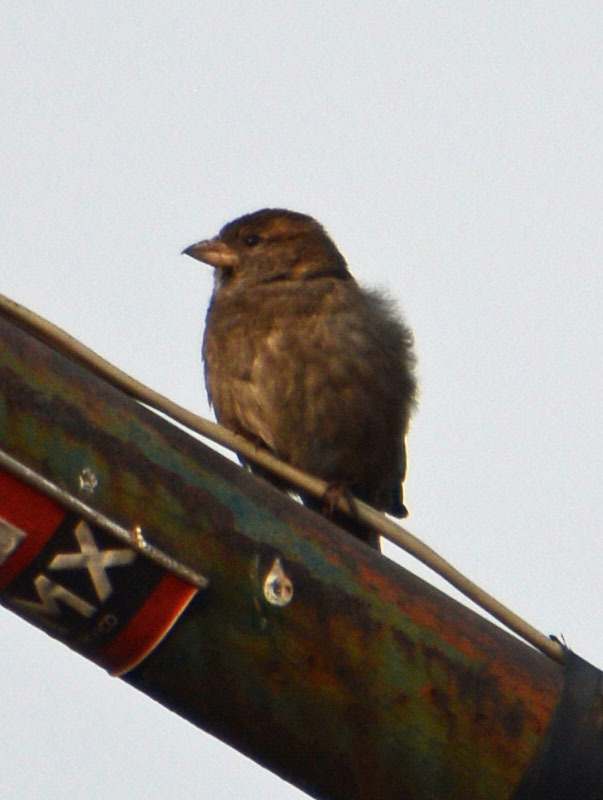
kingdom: Animalia
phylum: Chordata
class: Aves
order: Passeriformes
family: Passeridae
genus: Passer
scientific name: Passer domesticus
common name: House sparrow
